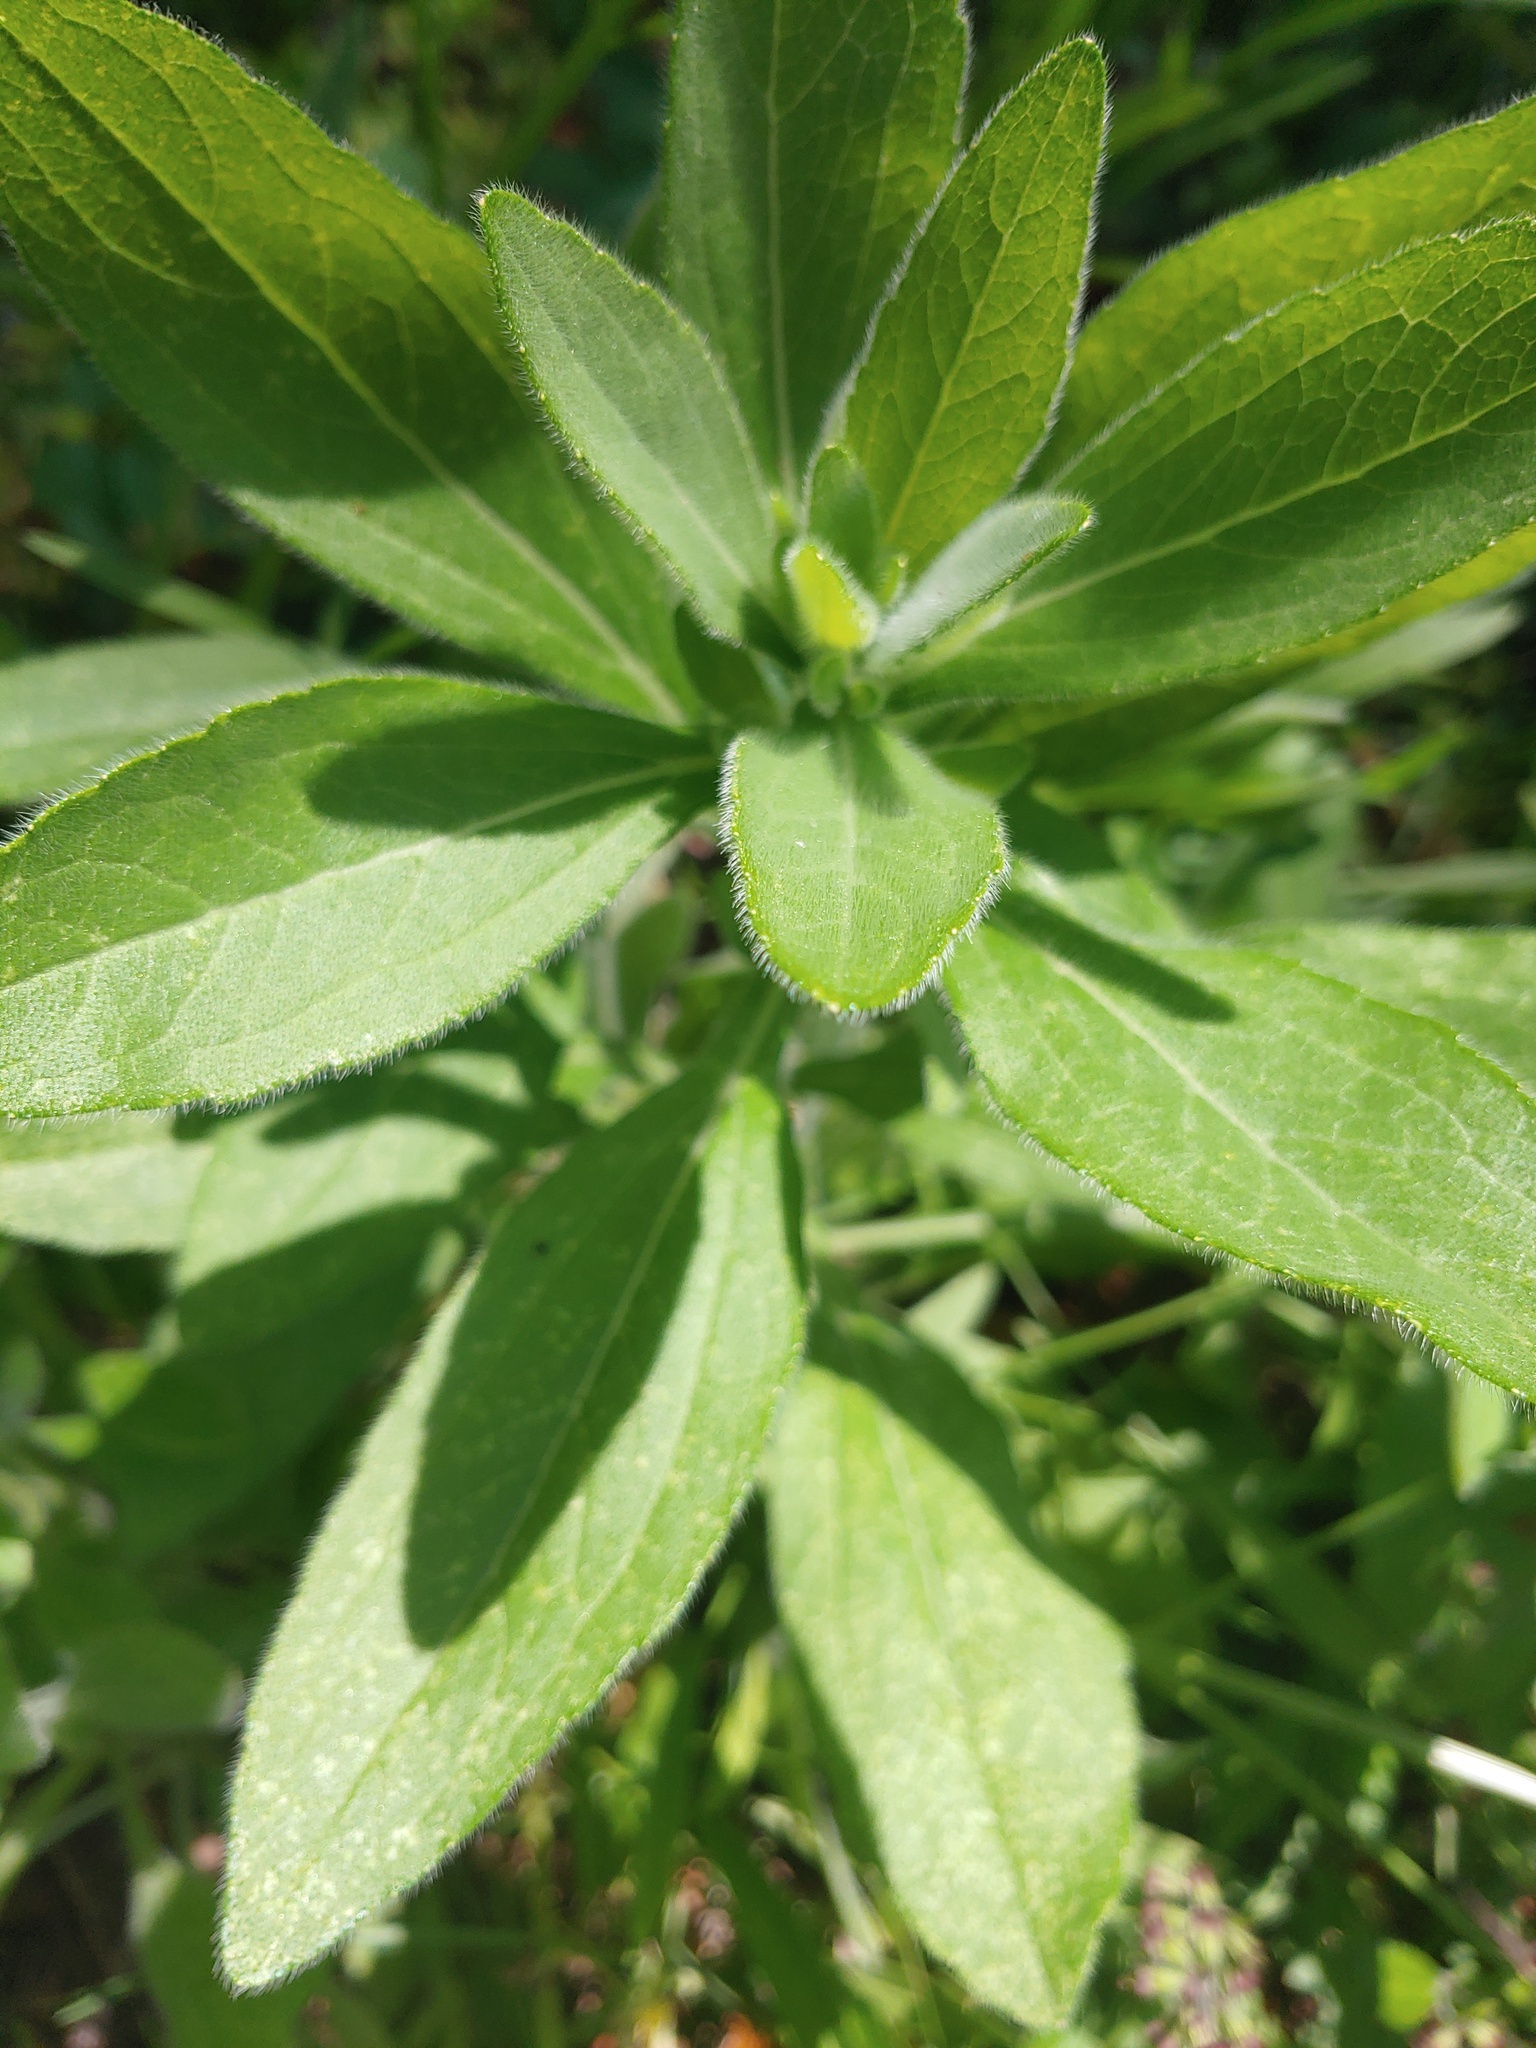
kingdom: Plantae
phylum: Tracheophyta
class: Magnoliopsida
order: Asterales
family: Asteraceae
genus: Rudbeckia
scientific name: Rudbeckia hirta
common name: Black-eyed-susan
